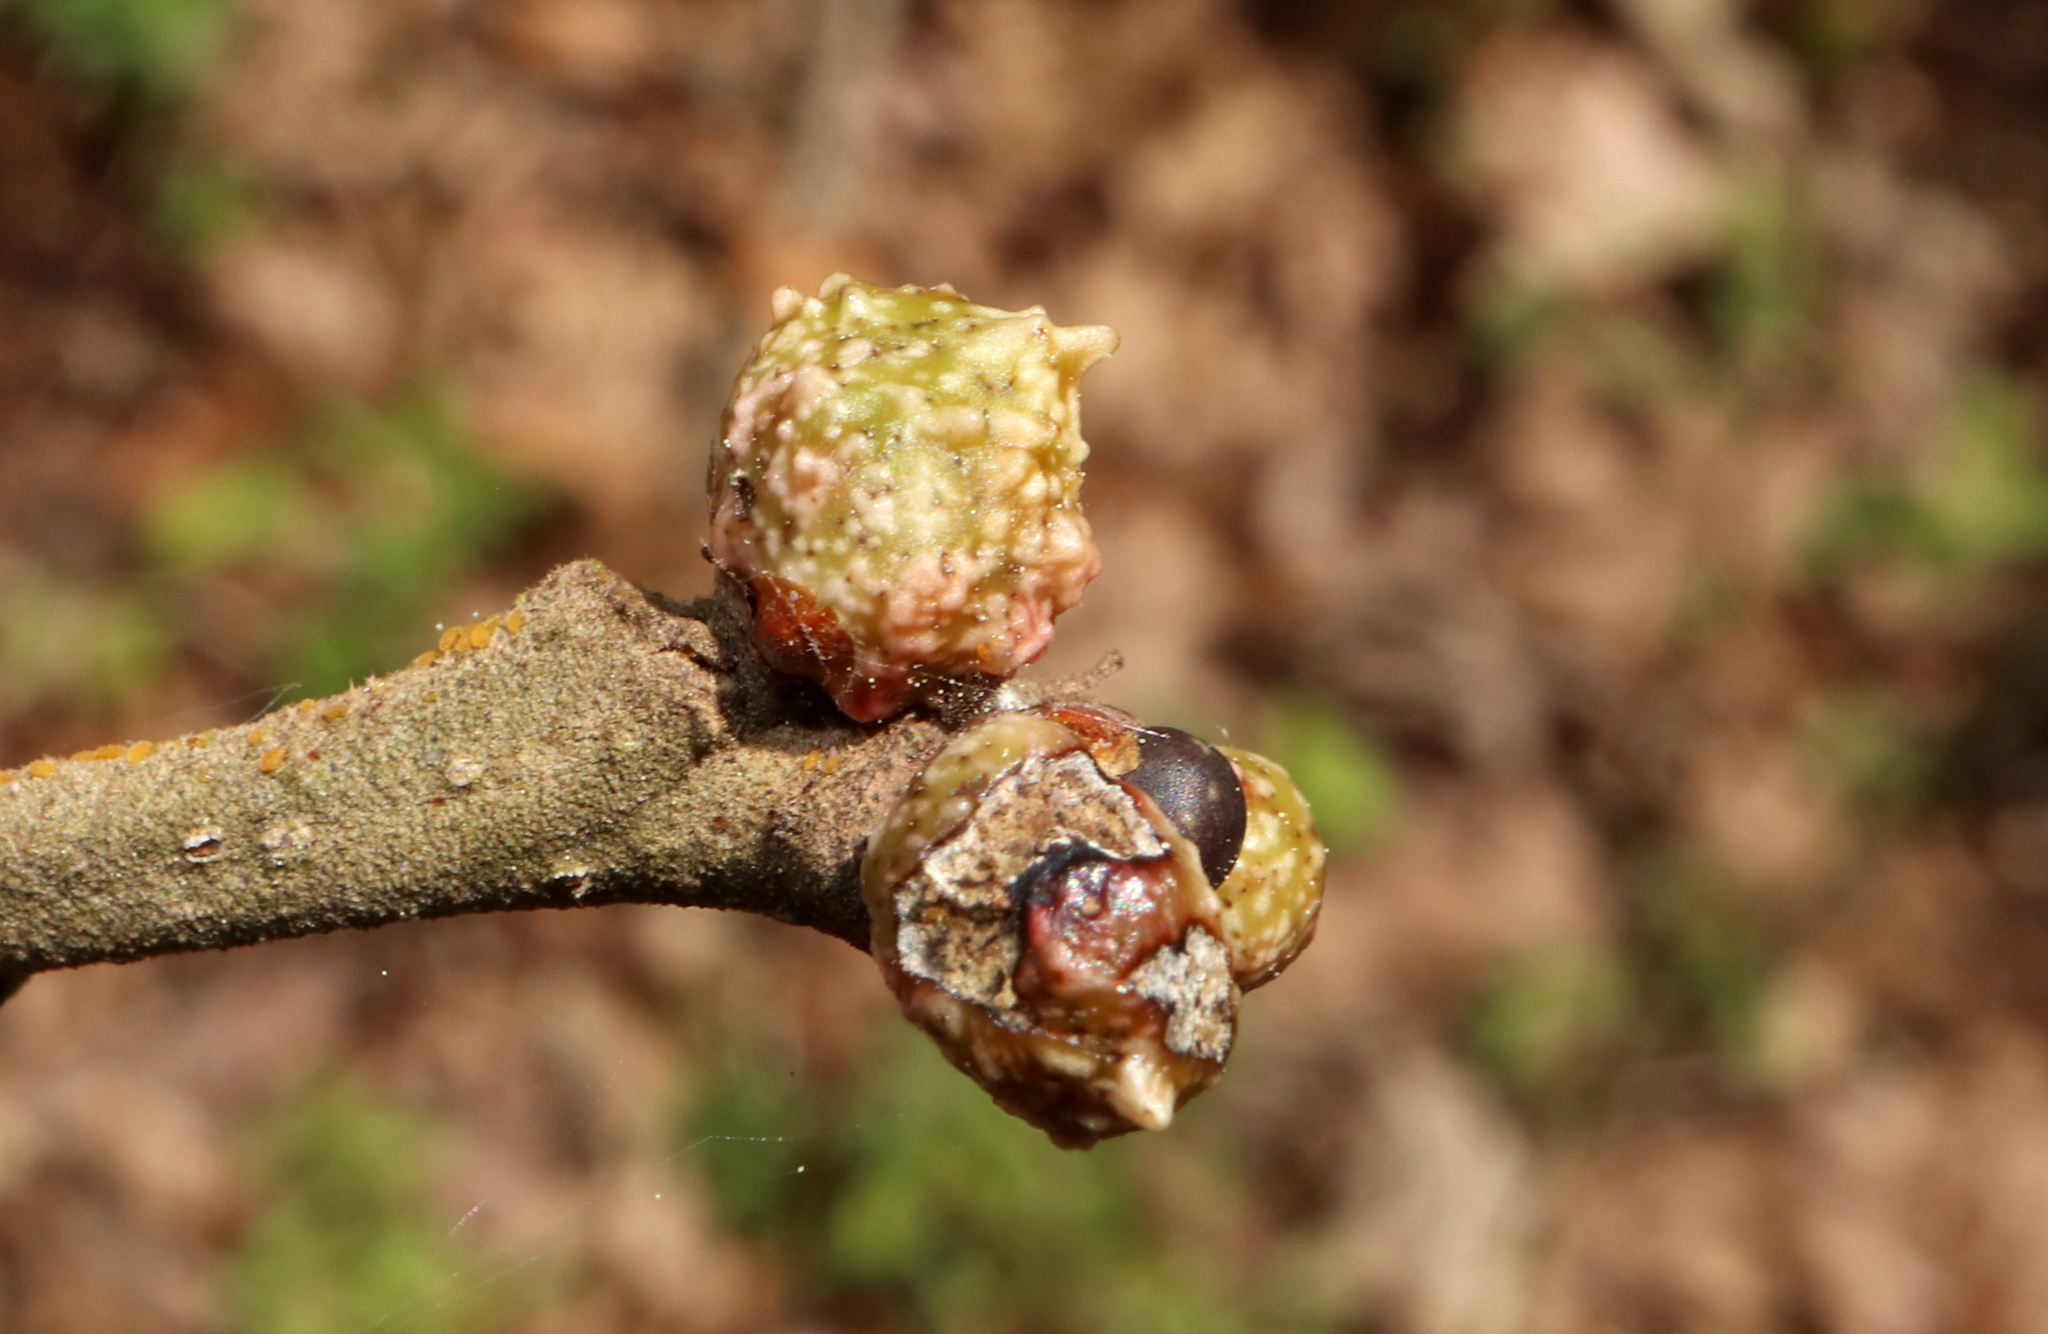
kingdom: Animalia
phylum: Arthropoda
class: Insecta
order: Hymenoptera
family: Cynipidae
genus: Andricus
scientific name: Andricus
